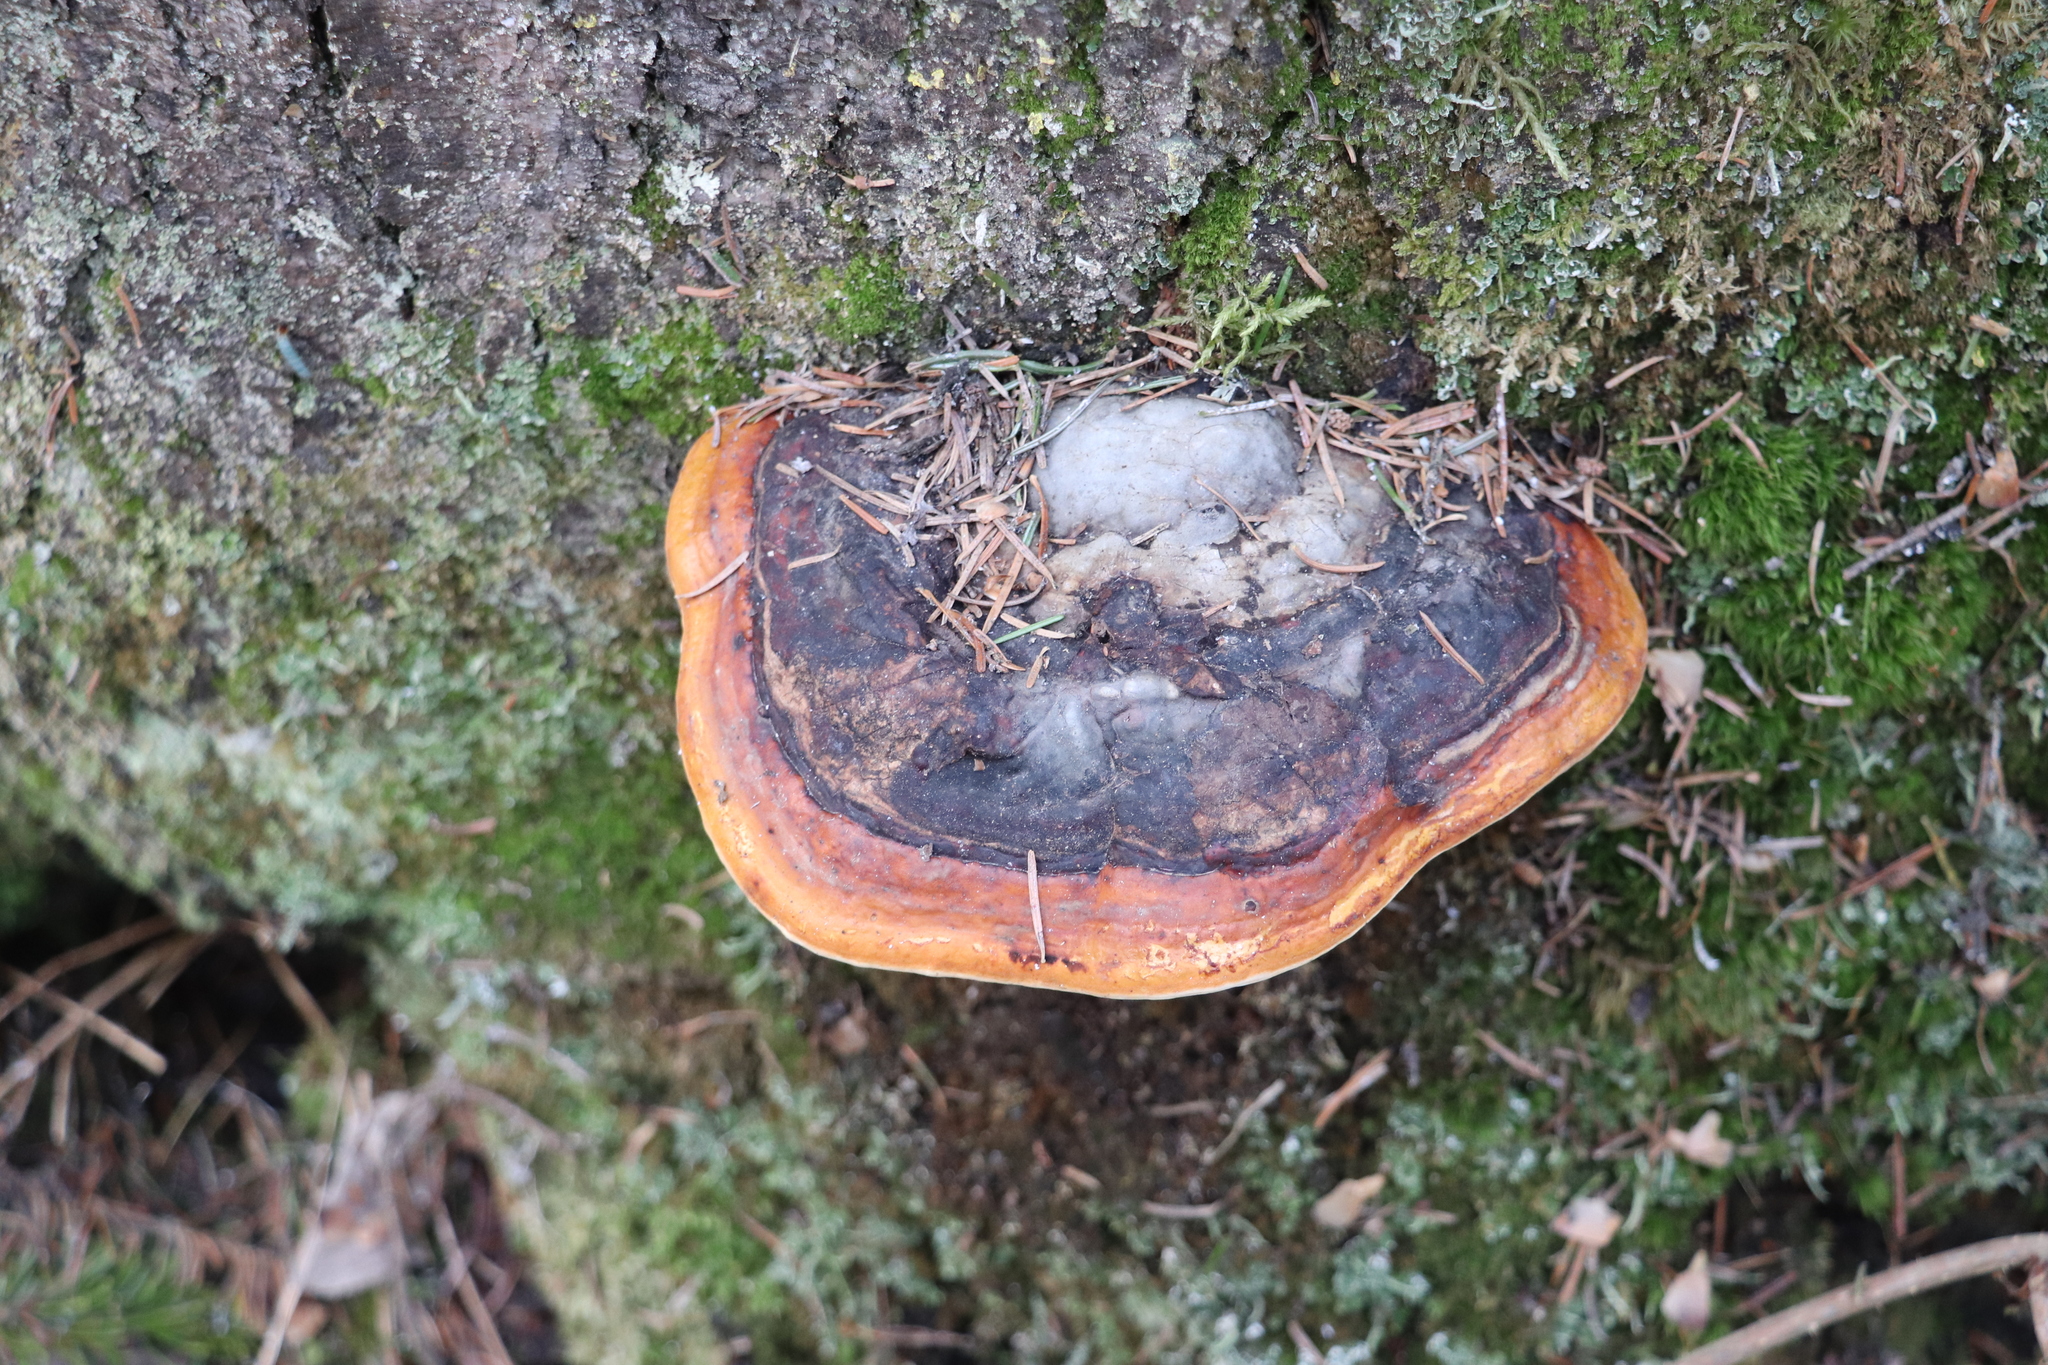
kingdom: Fungi
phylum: Basidiomycota
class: Agaricomycetes
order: Polyporales
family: Fomitopsidaceae
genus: Fomitopsis
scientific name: Fomitopsis pinicola
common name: Red-belted bracket
